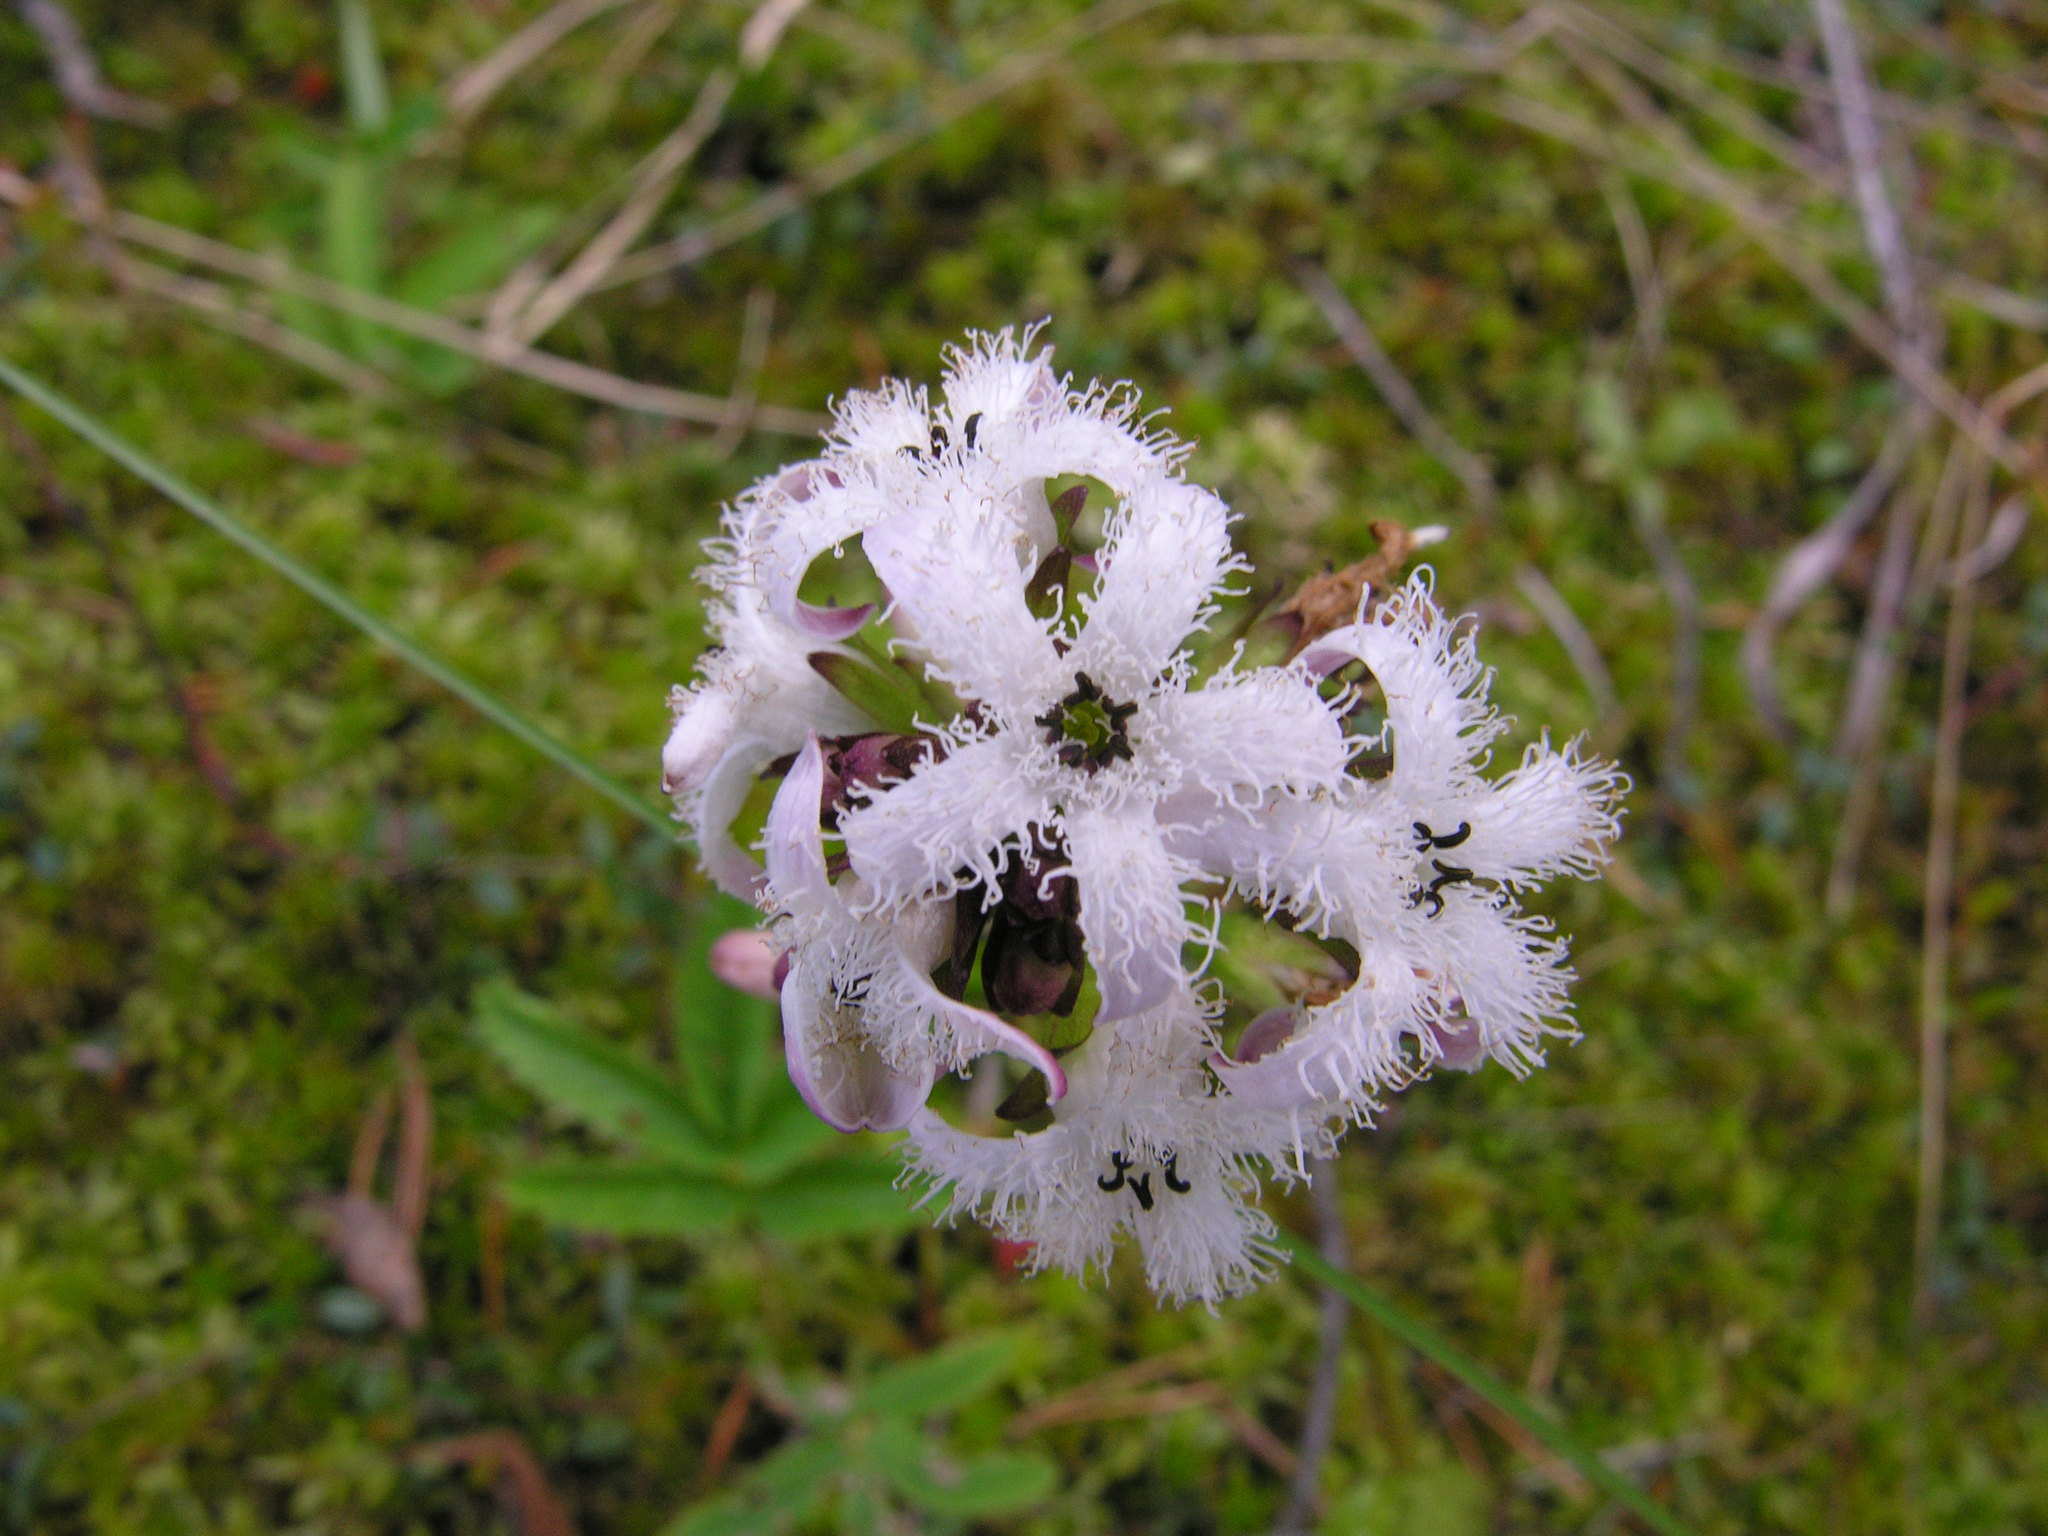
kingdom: Plantae
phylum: Tracheophyta
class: Magnoliopsida
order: Asterales
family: Menyanthaceae
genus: Menyanthes
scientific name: Menyanthes trifoliata
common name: Bogbean
